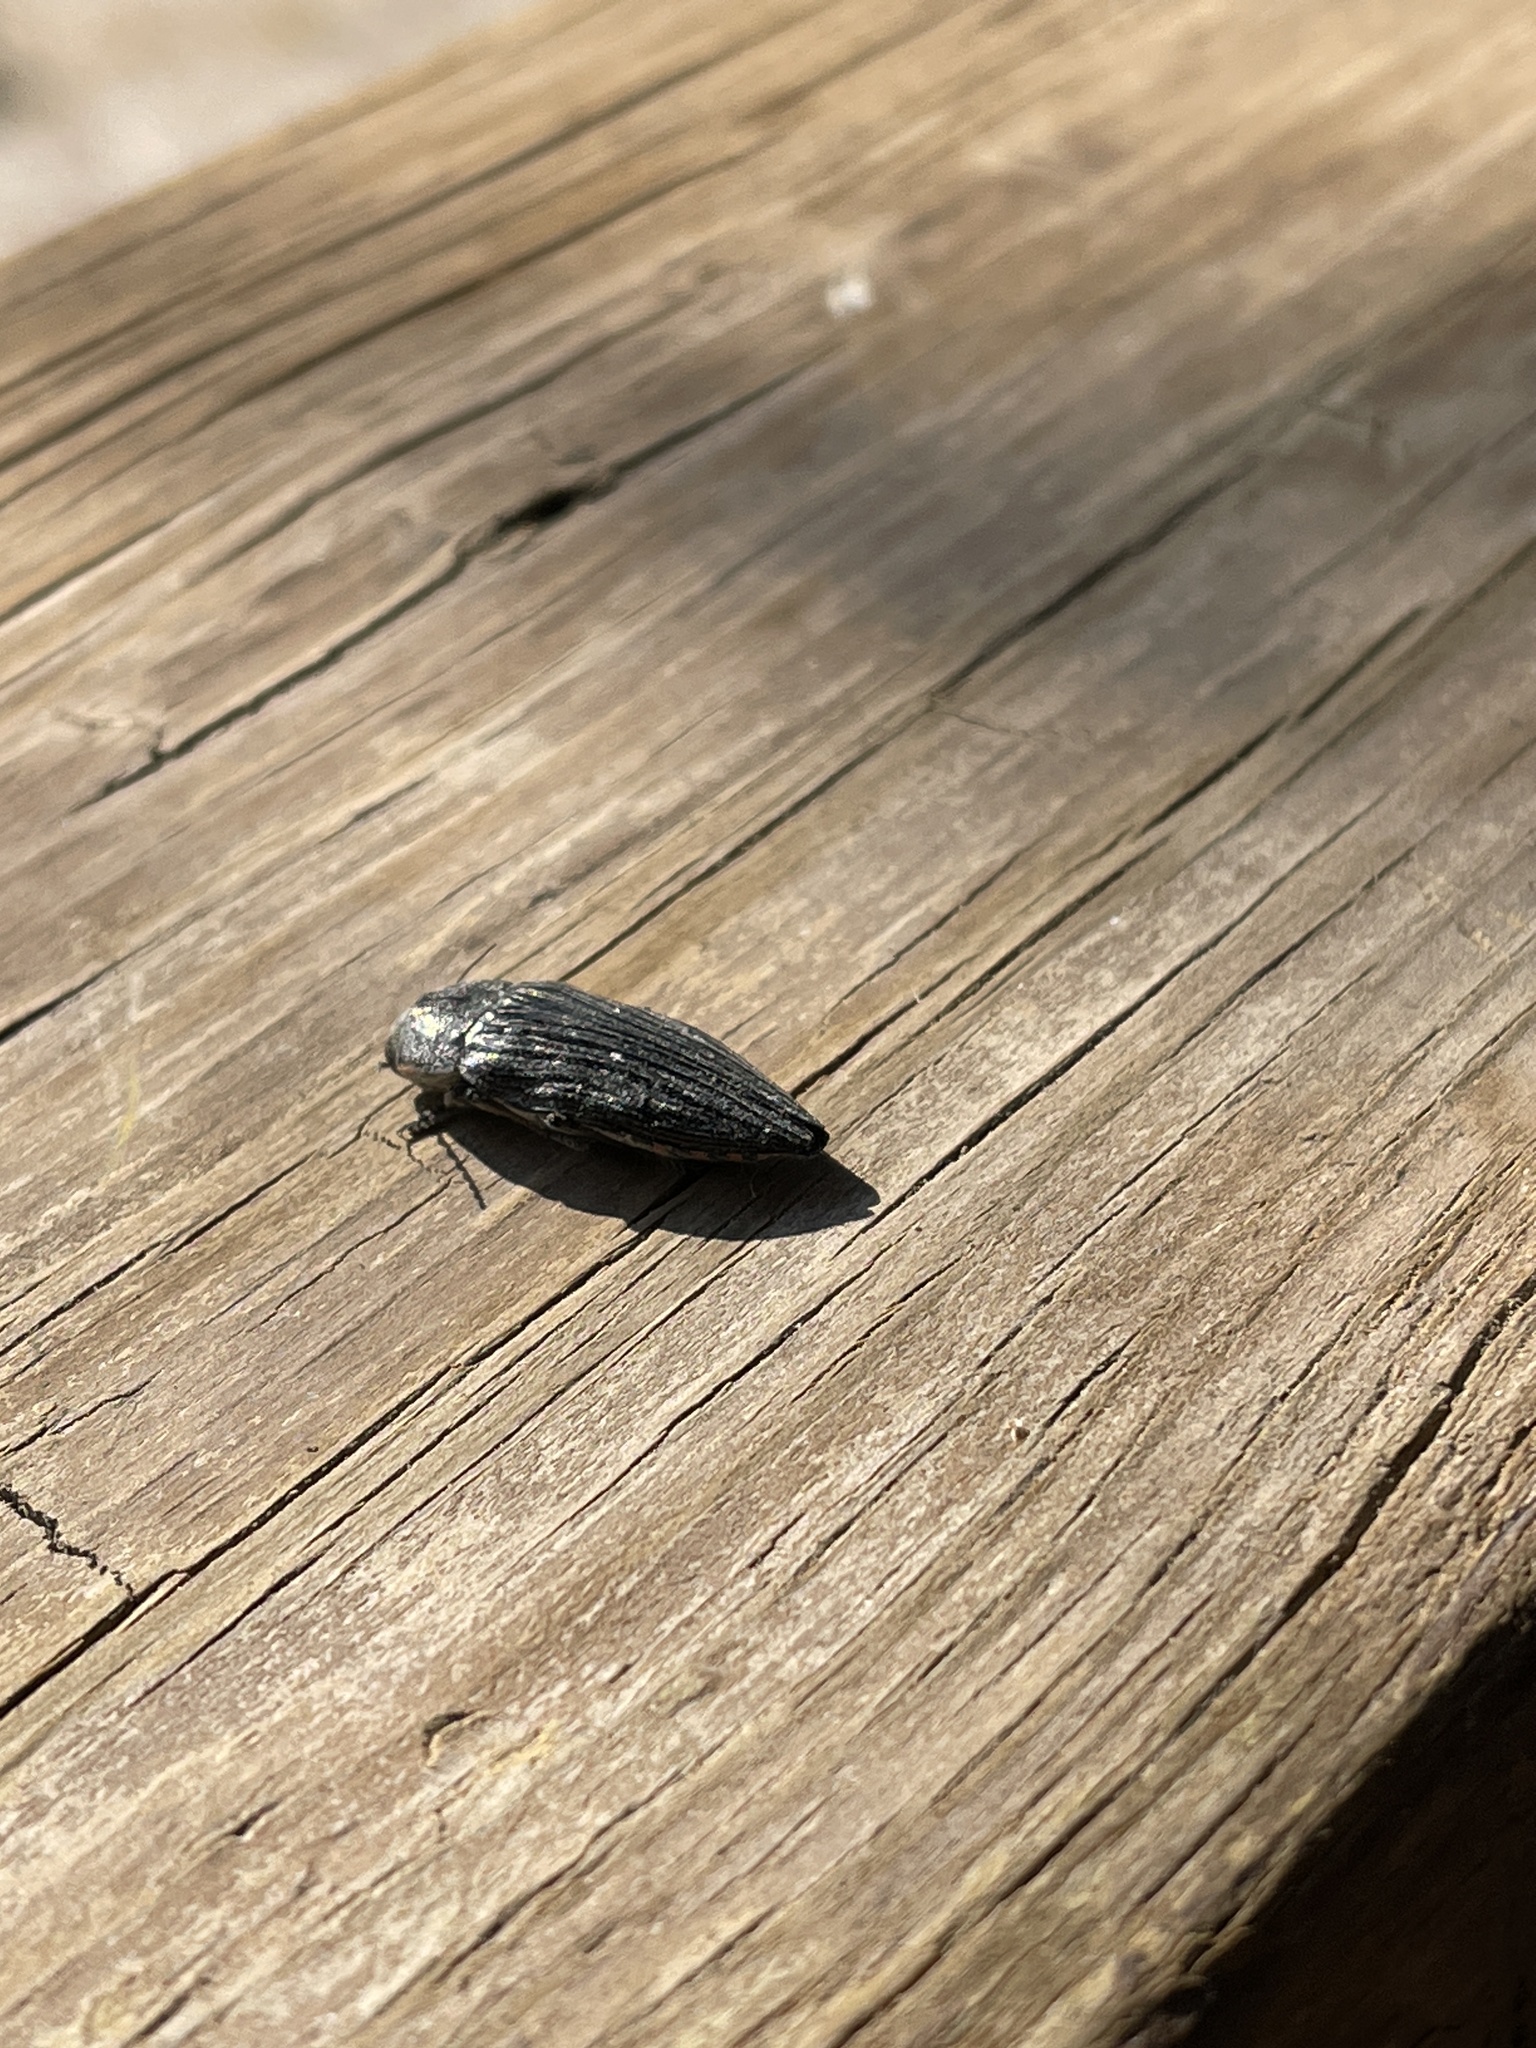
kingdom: Animalia
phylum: Arthropoda
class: Insecta
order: Coleoptera
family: Buprestidae
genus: Buprestis
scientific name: Buprestis lyrata
